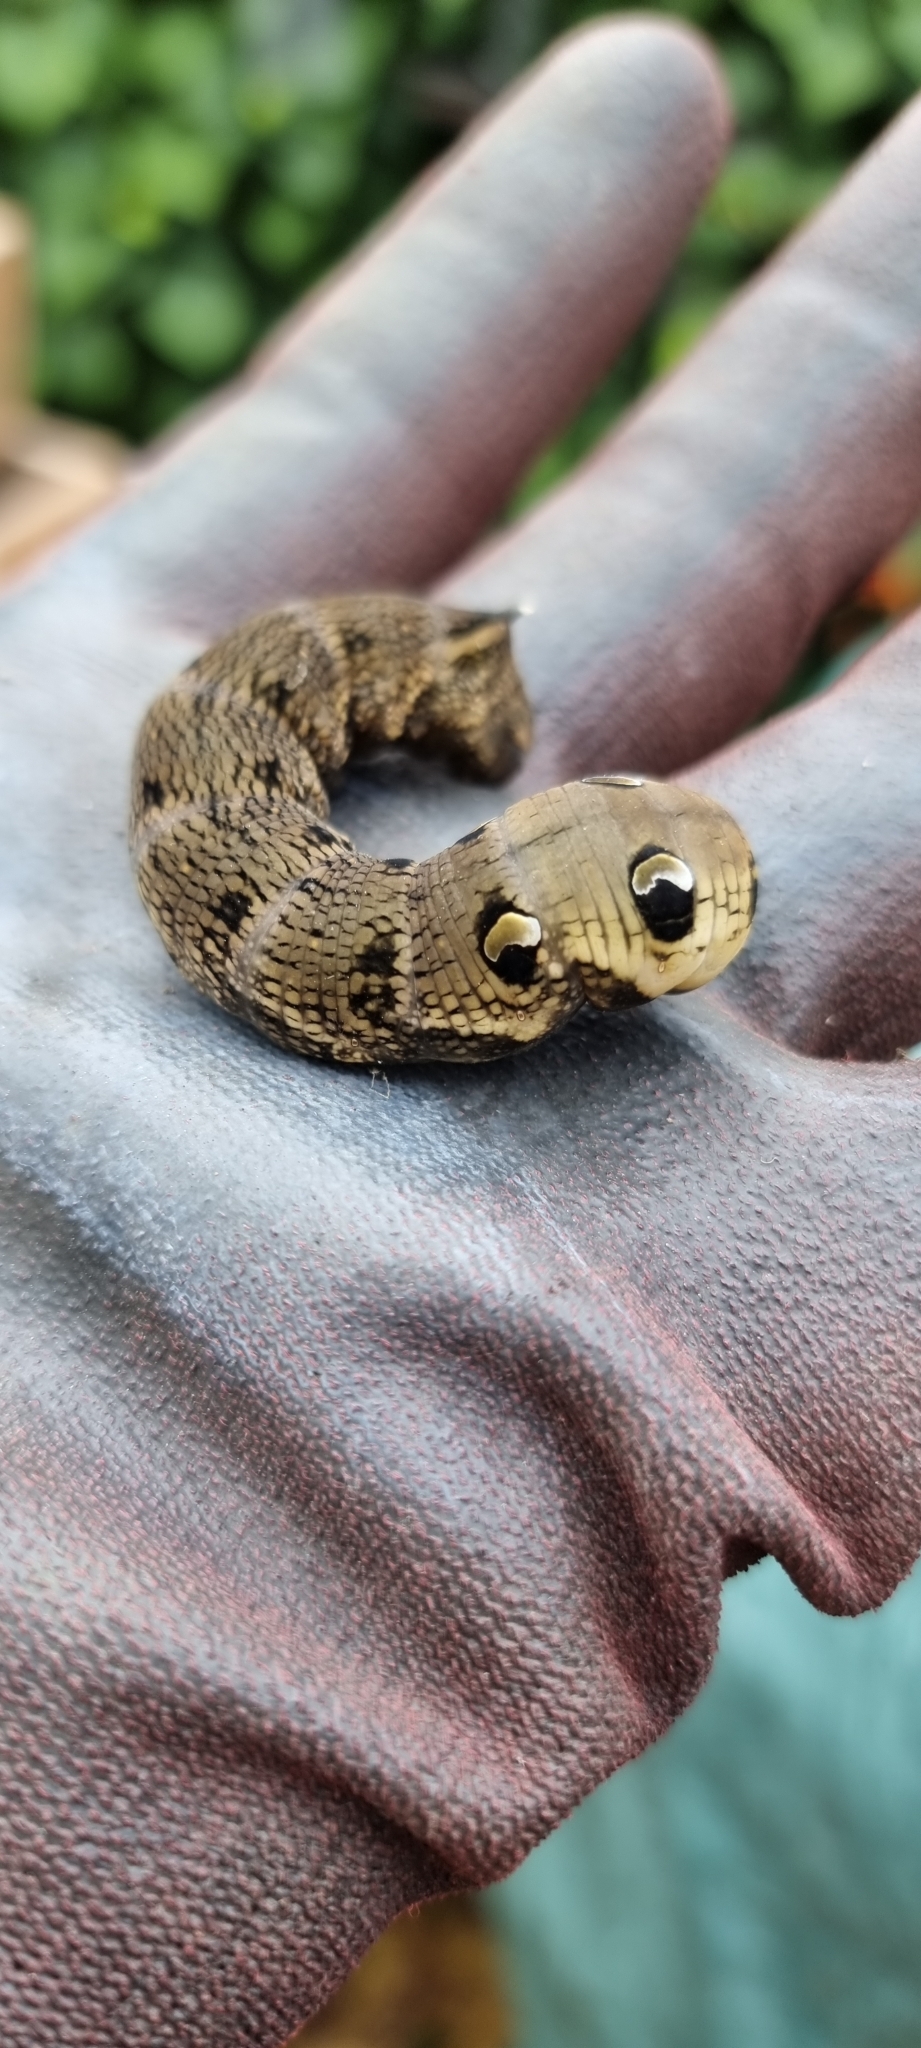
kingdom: Animalia
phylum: Arthropoda
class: Insecta
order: Lepidoptera
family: Sphingidae
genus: Deilephila
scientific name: Deilephila elpenor
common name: Elephant hawk-moth
